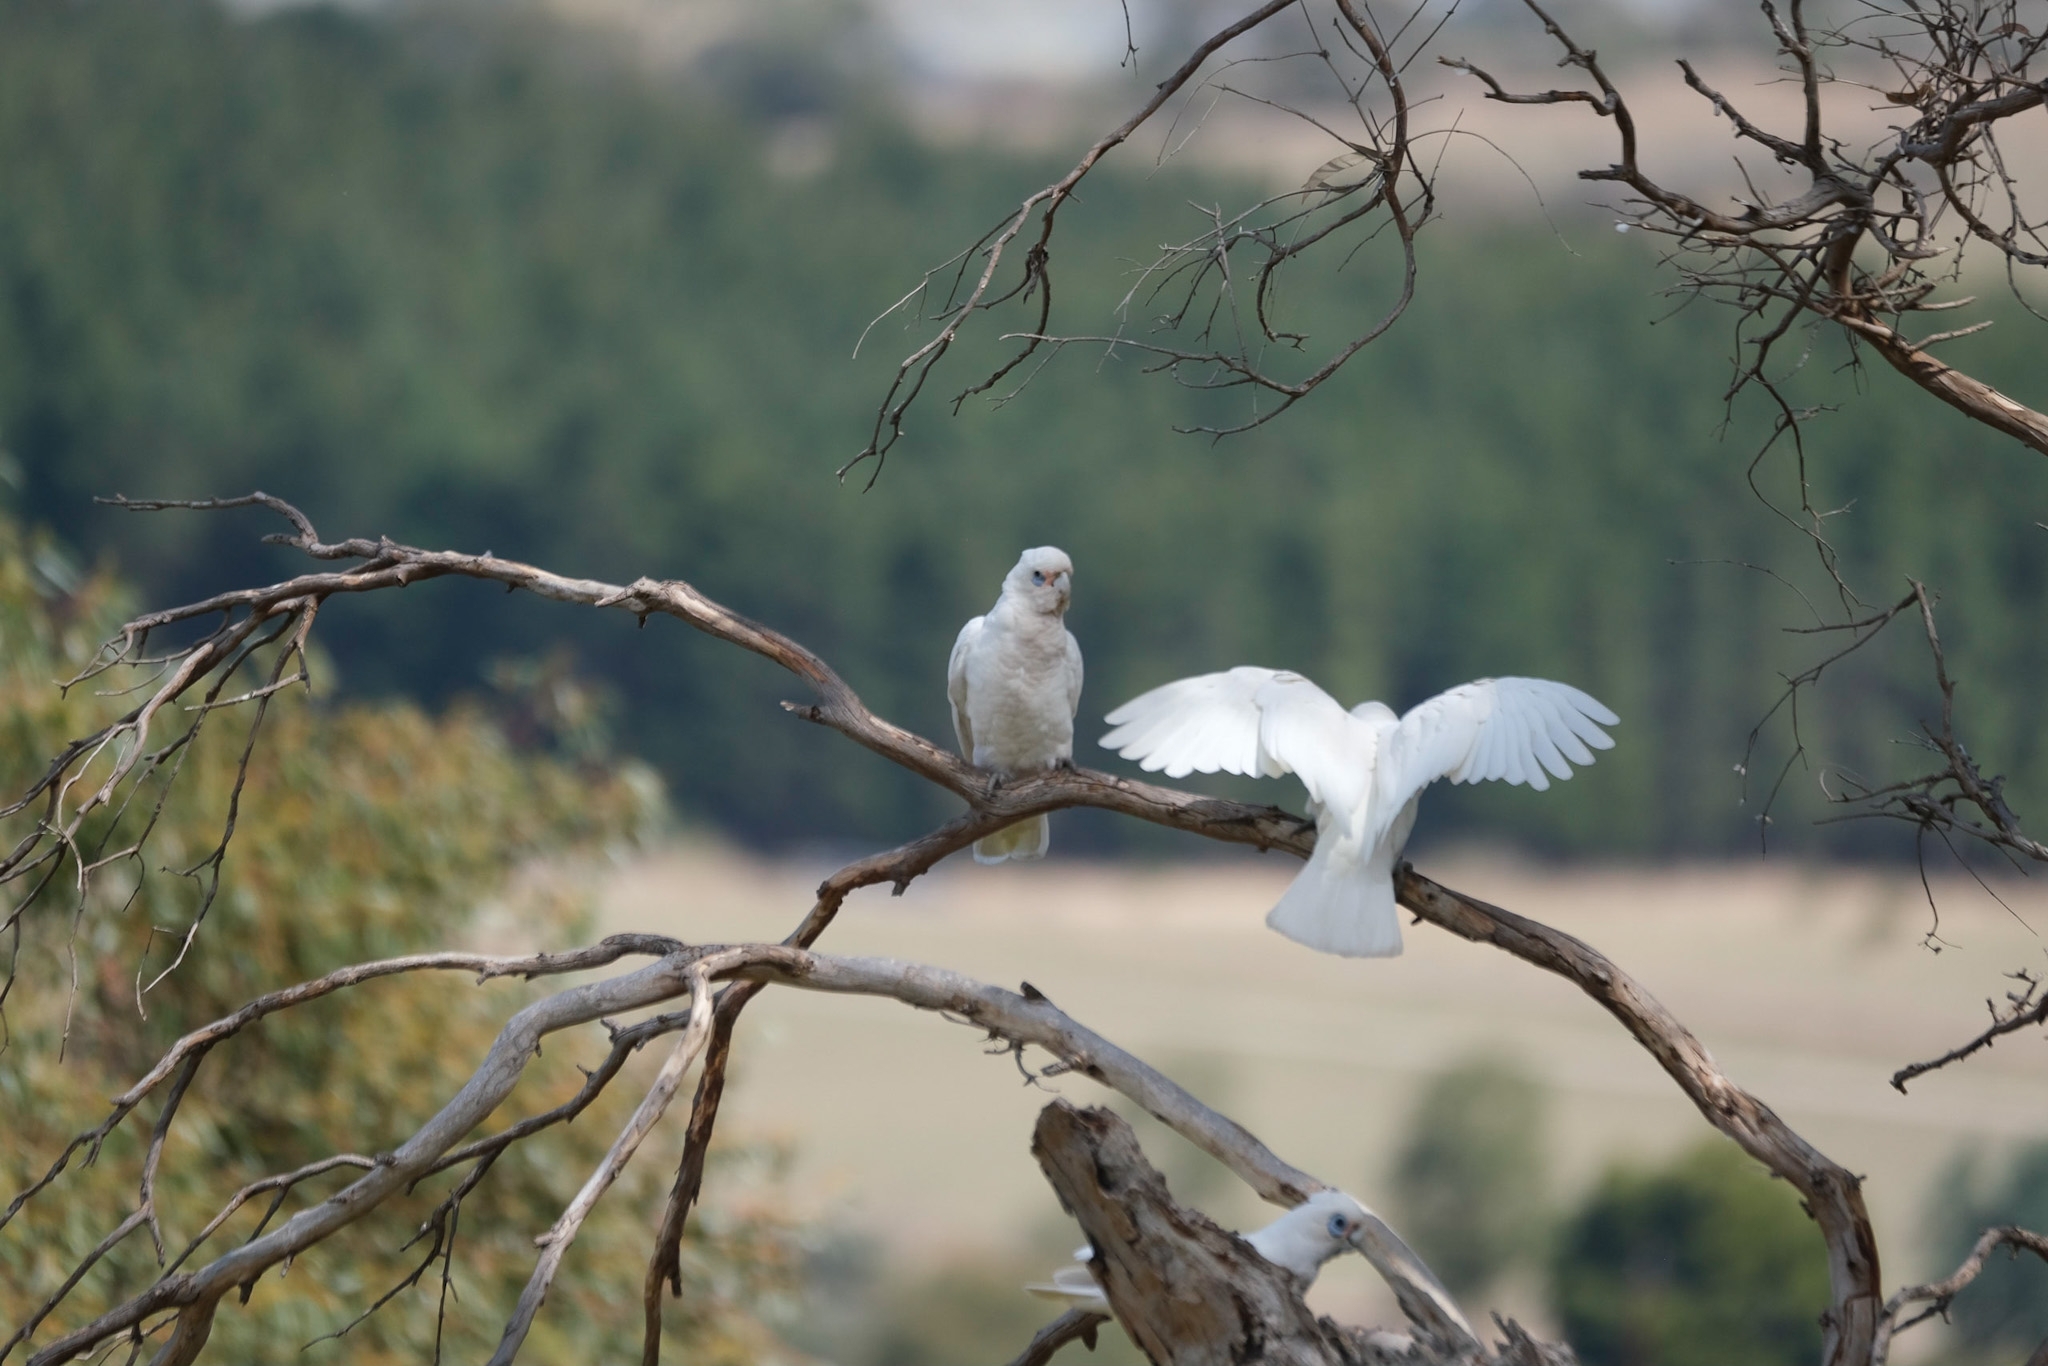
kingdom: Animalia
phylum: Chordata
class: Aves
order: Psittaciformes
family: Psittacidae
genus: Cacatua
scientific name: Cacatua sanguinea
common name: Little corella
